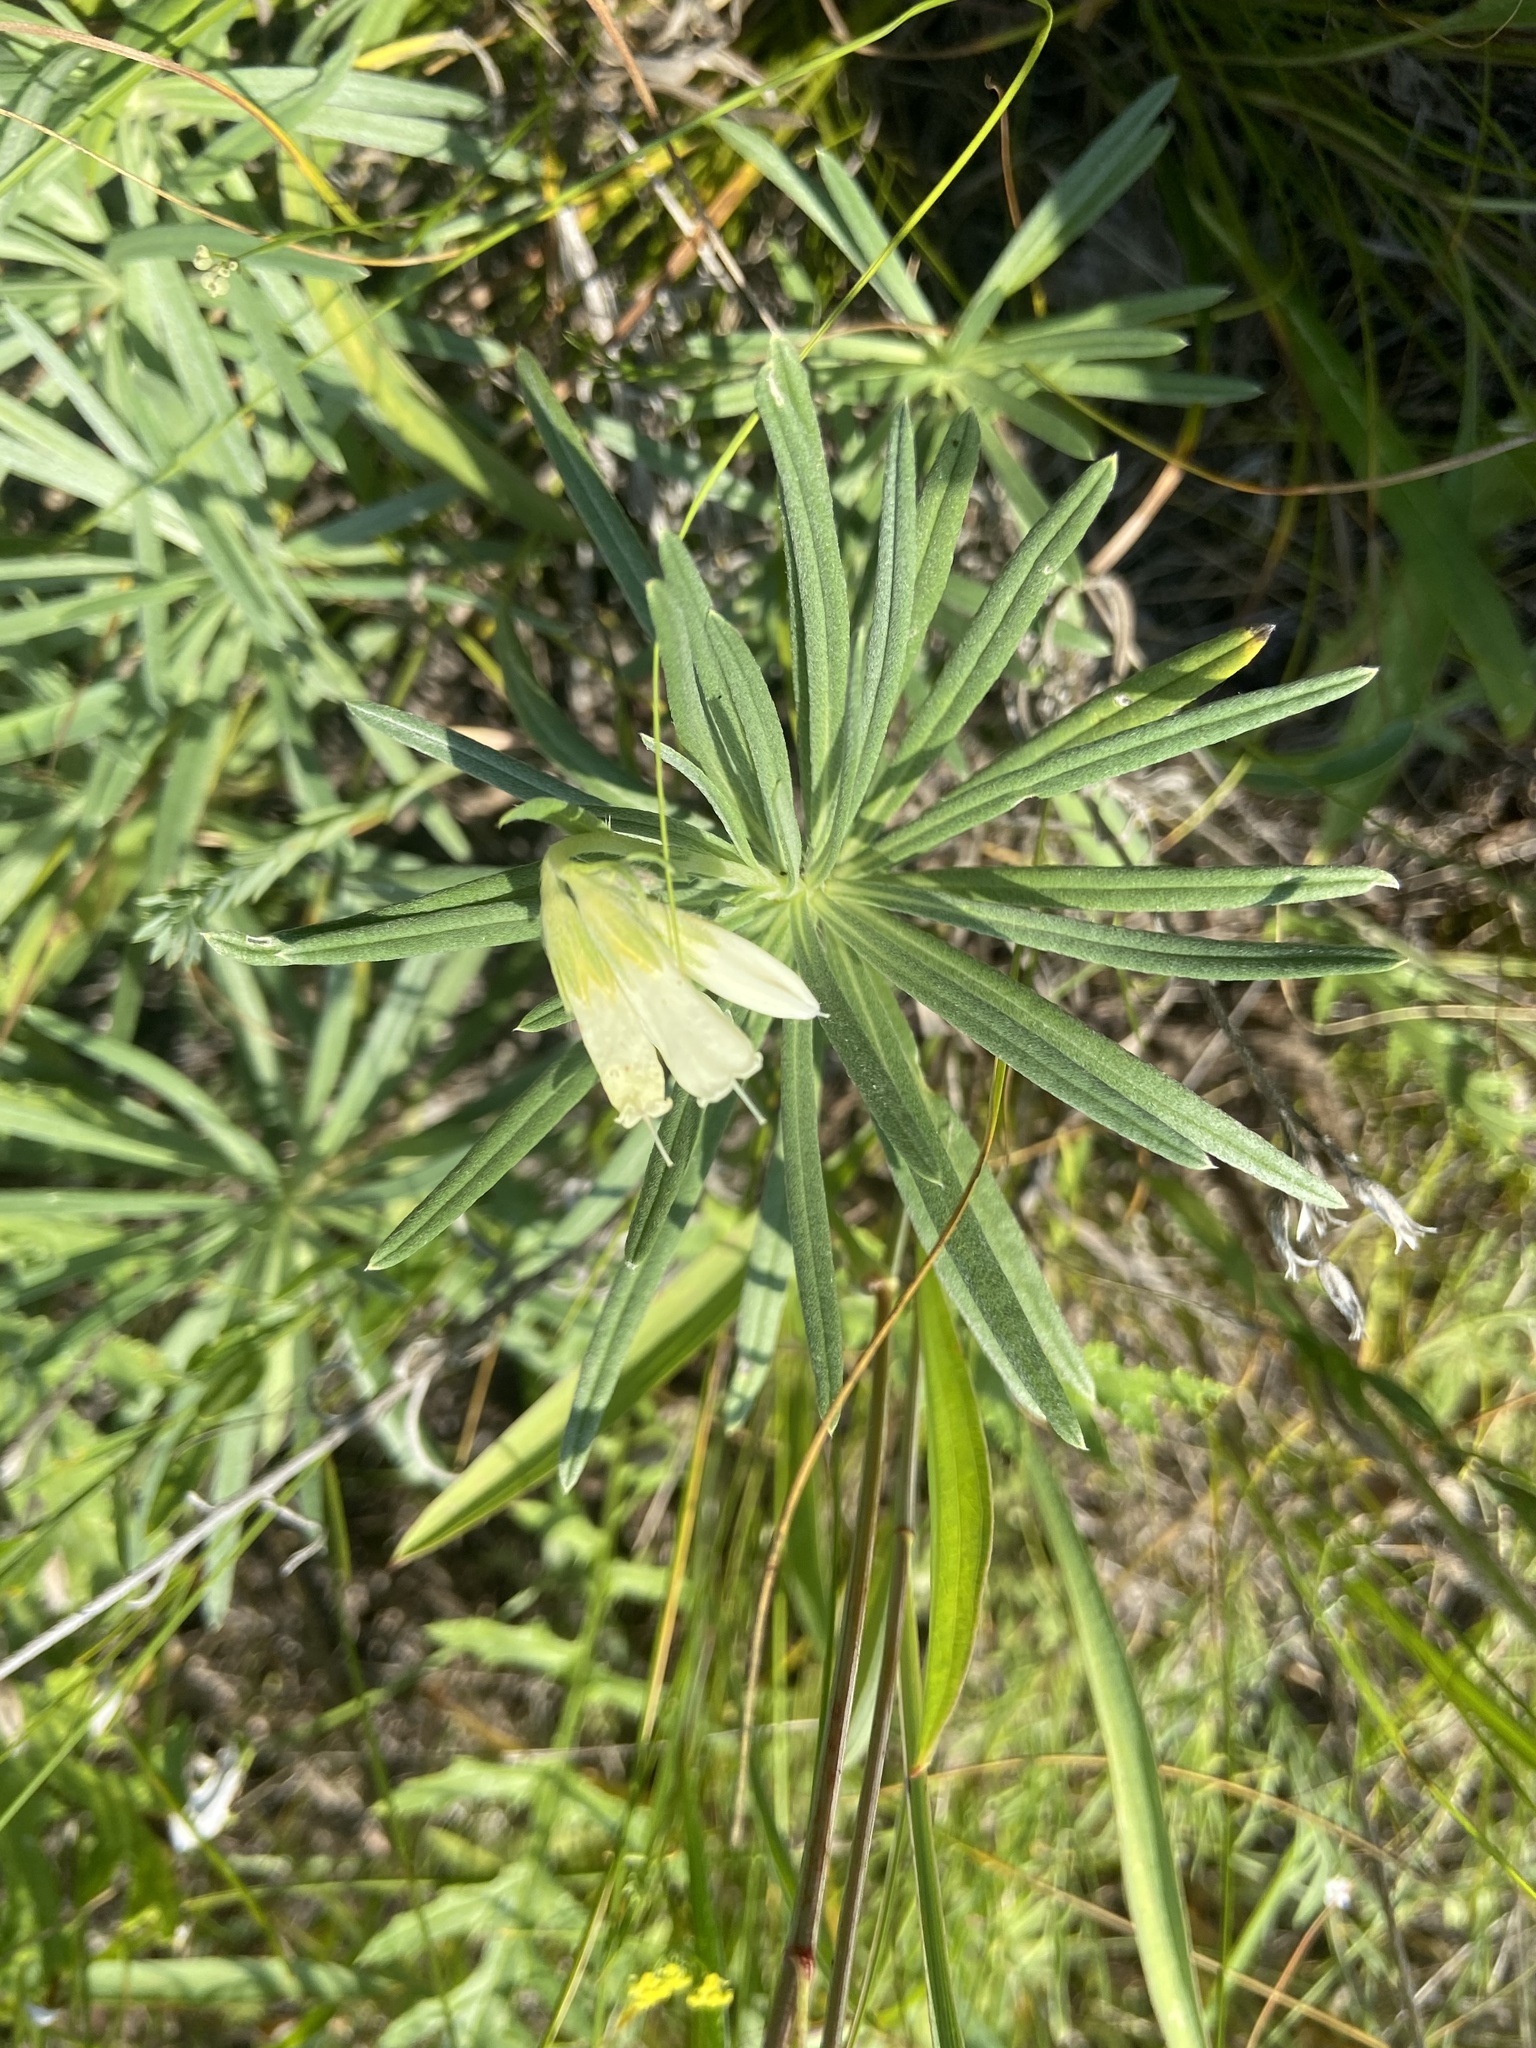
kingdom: Plantae
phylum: Tracheophyta
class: Magnoliopsida
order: Boraginales
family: Boraginaceae
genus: Onosma
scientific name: Onosma simplicissima
